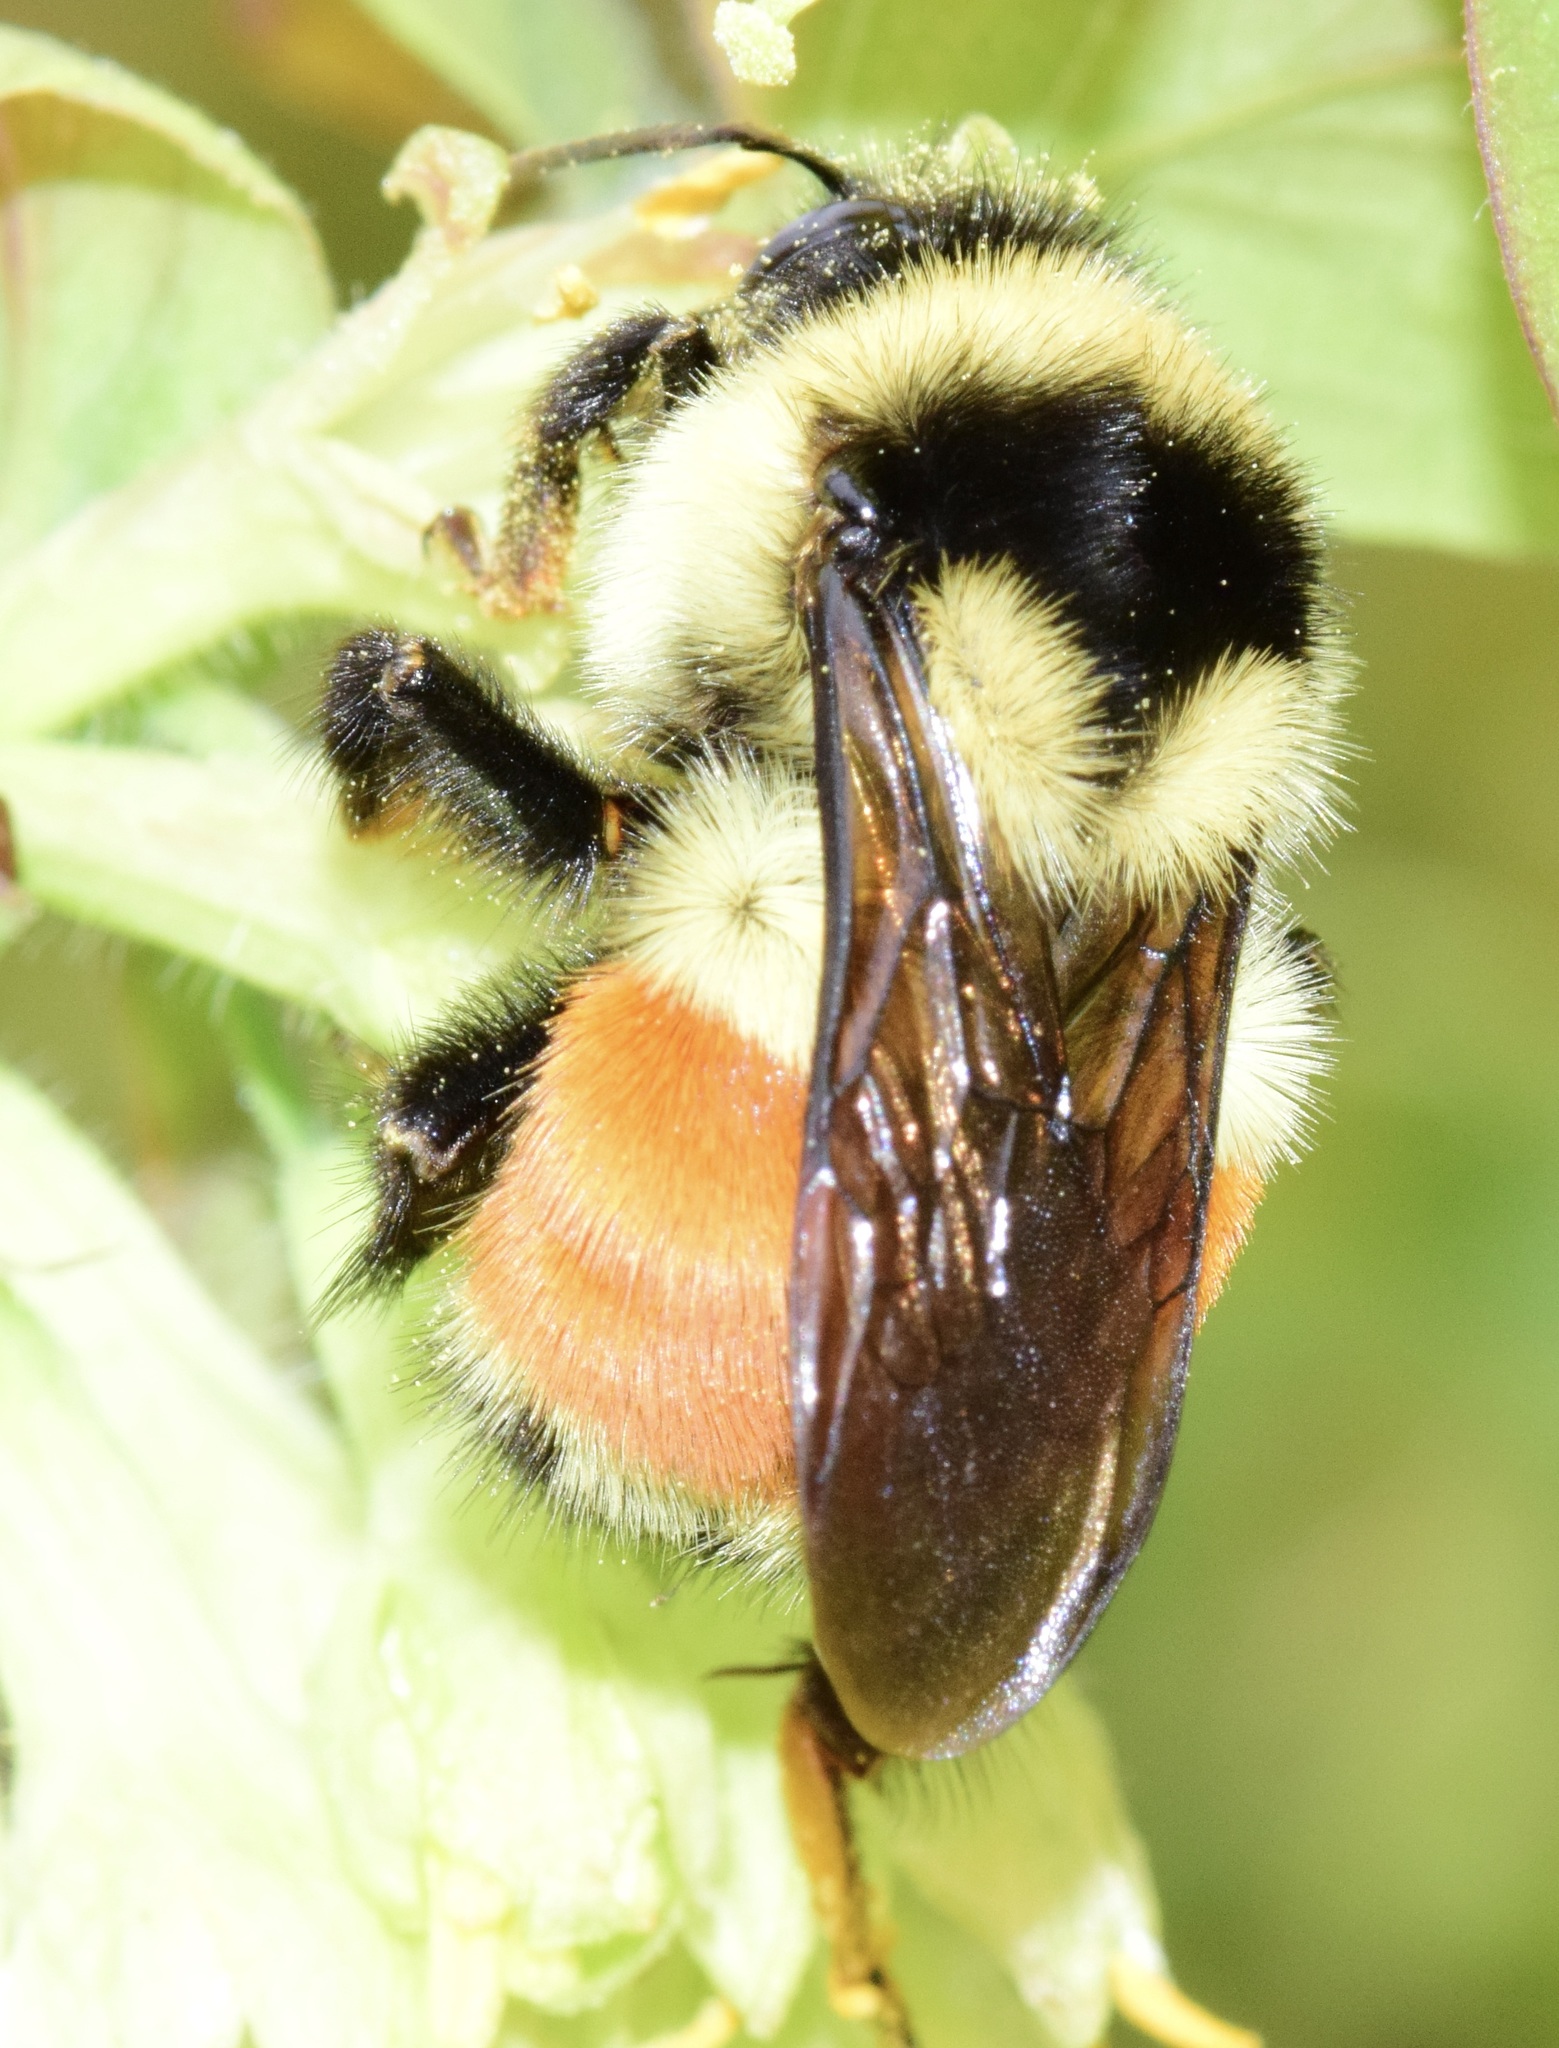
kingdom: Animalia
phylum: Arthropoda
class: Insecta
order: Hymenoptera
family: Apidae
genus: Bombus
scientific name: Bombus ternarius
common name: Tri-colored bumble bee
